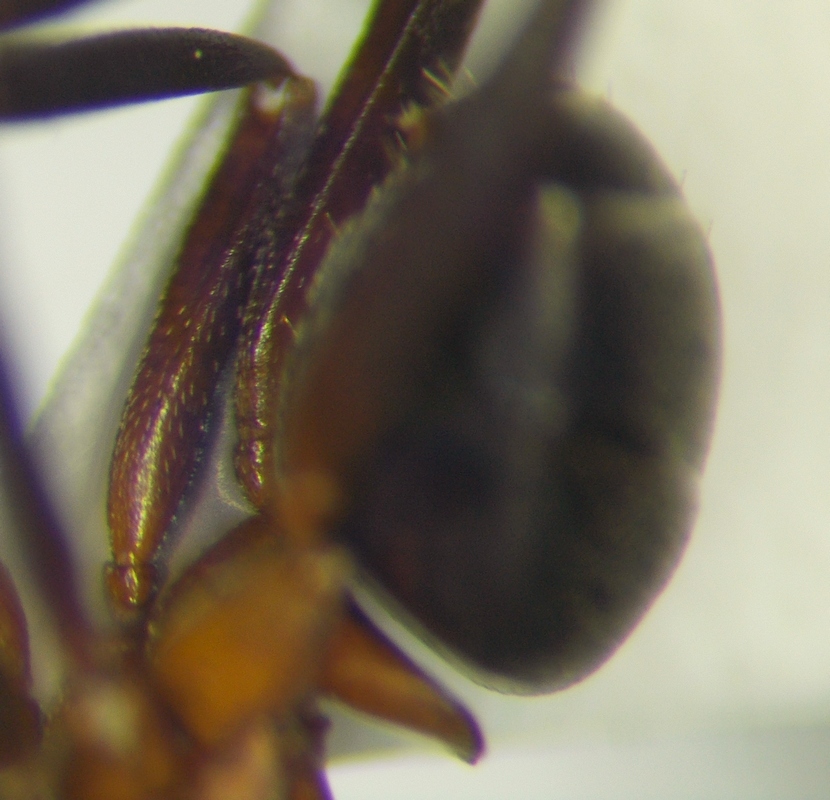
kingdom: Animalia
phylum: Arthropoda
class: Insecta
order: Hymenoptera
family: Formicidae
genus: Formica
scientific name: Formica exsecta
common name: Narrow headed ant
